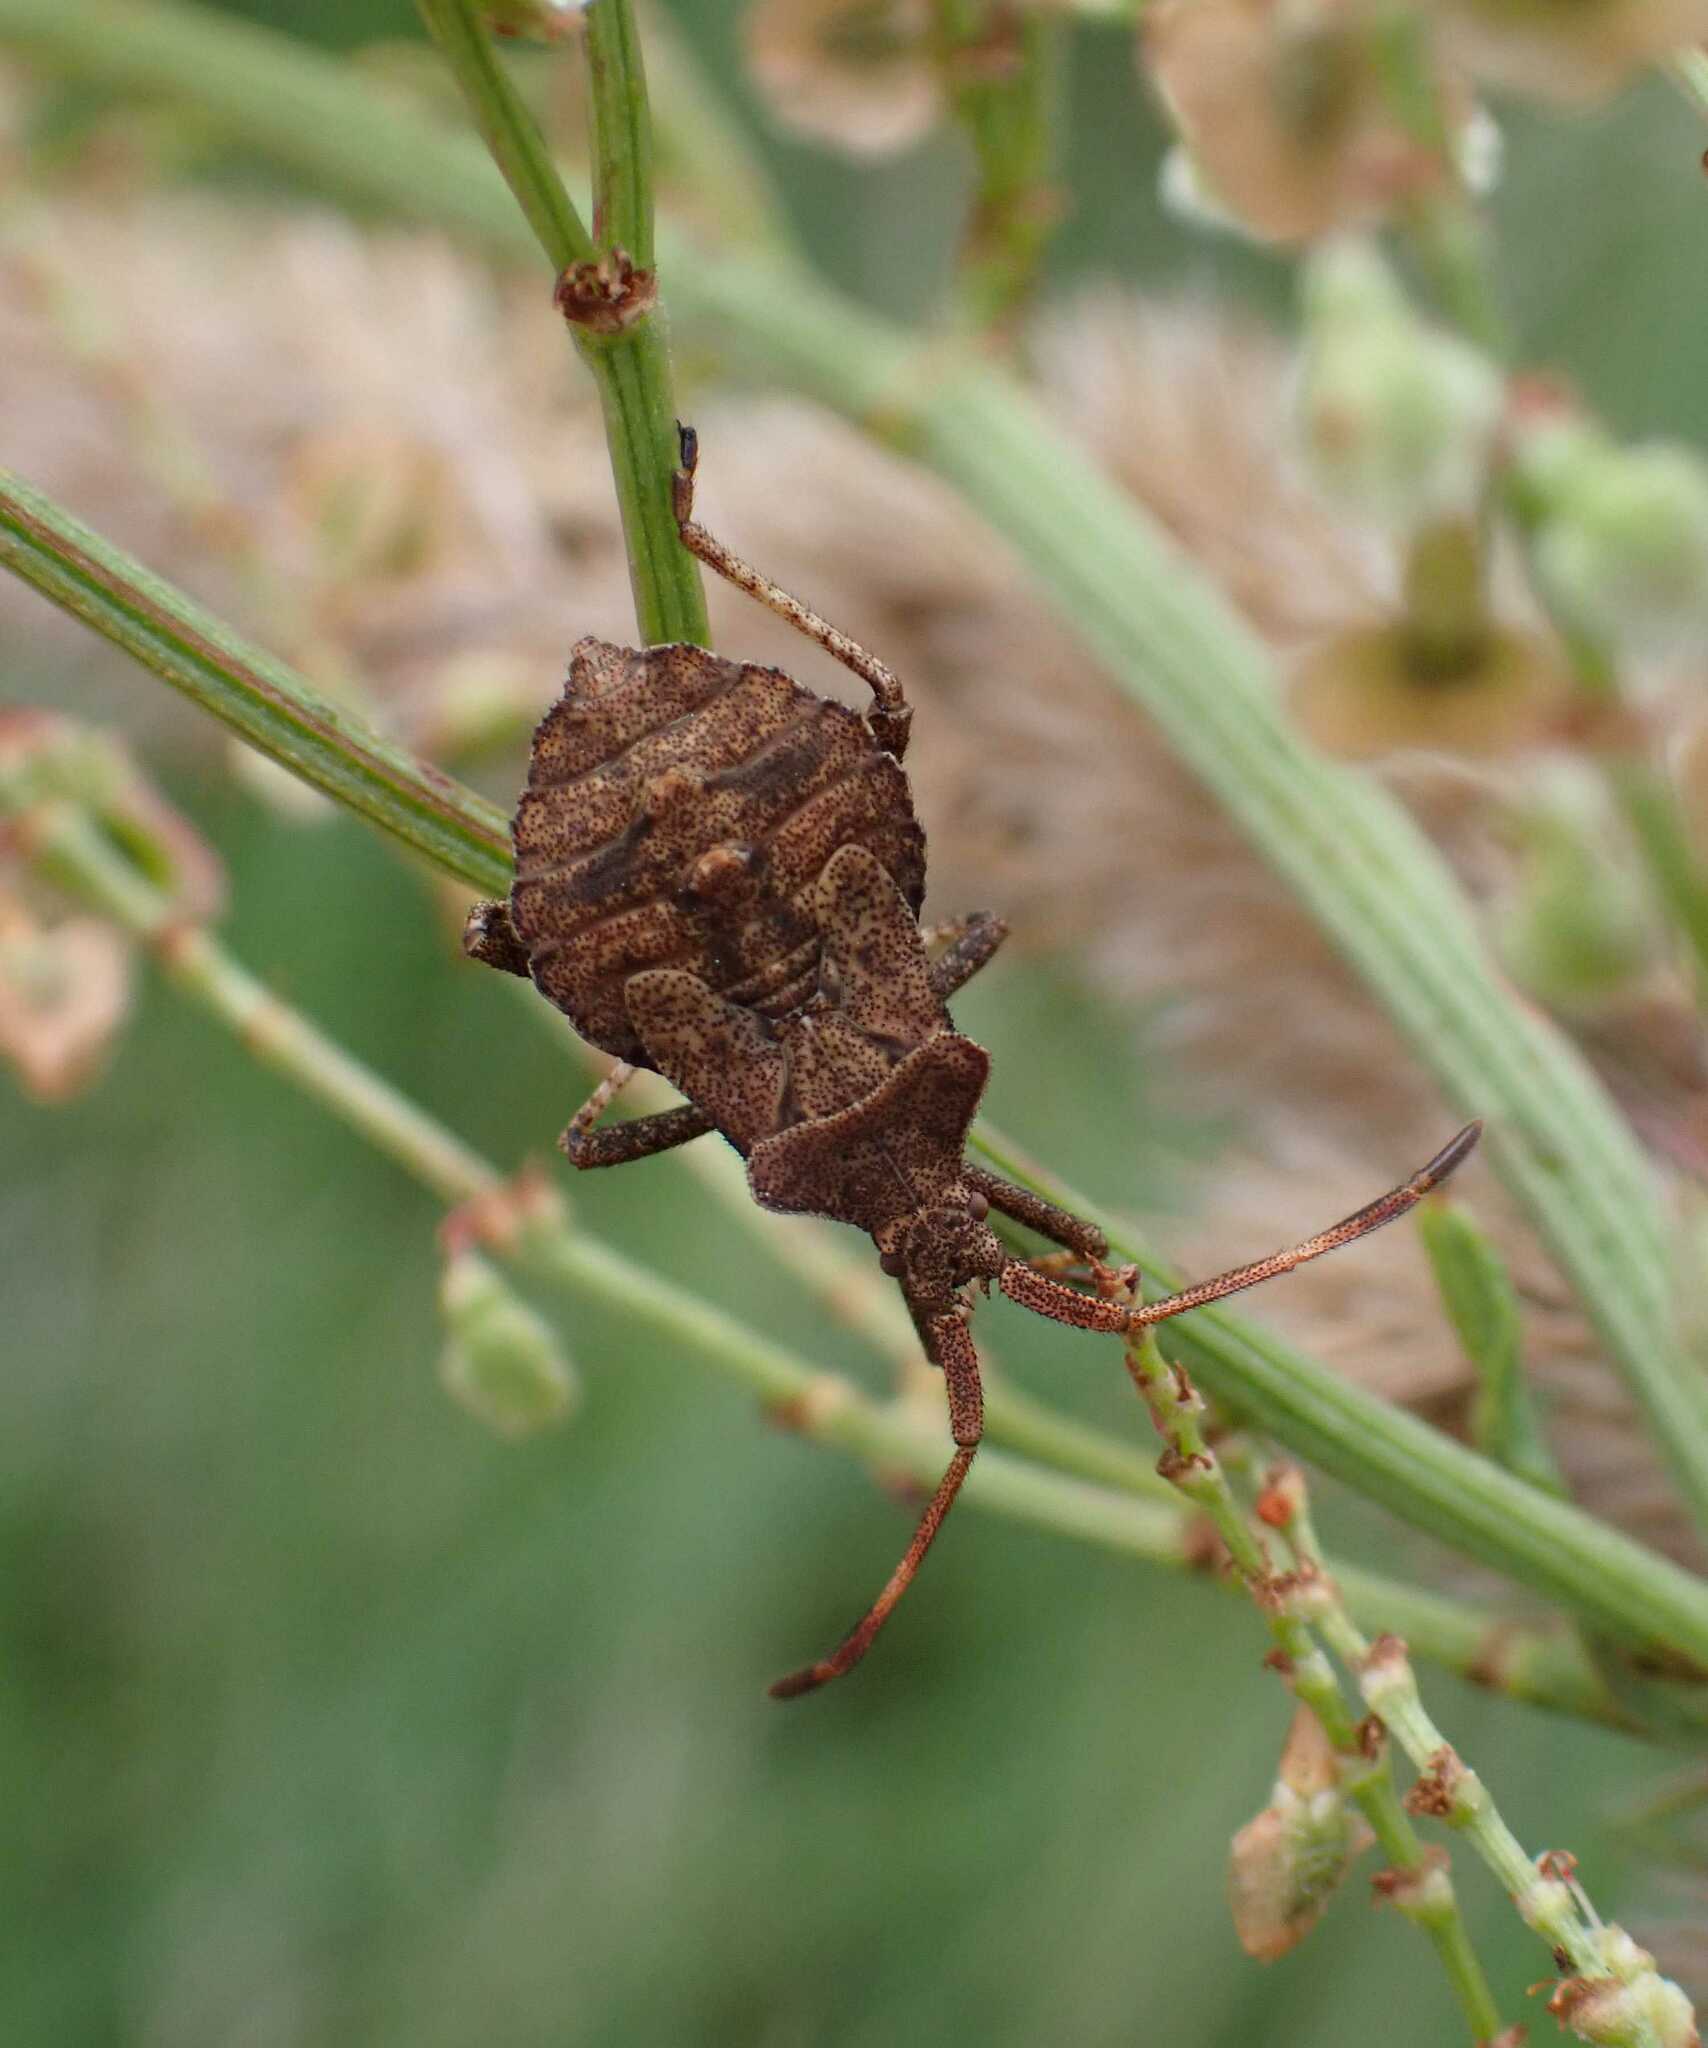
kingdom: Animalia
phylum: Arthropoda
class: Insecta
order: Hemiptera
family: Coreidae
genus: Coreus
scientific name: Coreus marginatus
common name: Dock bug
